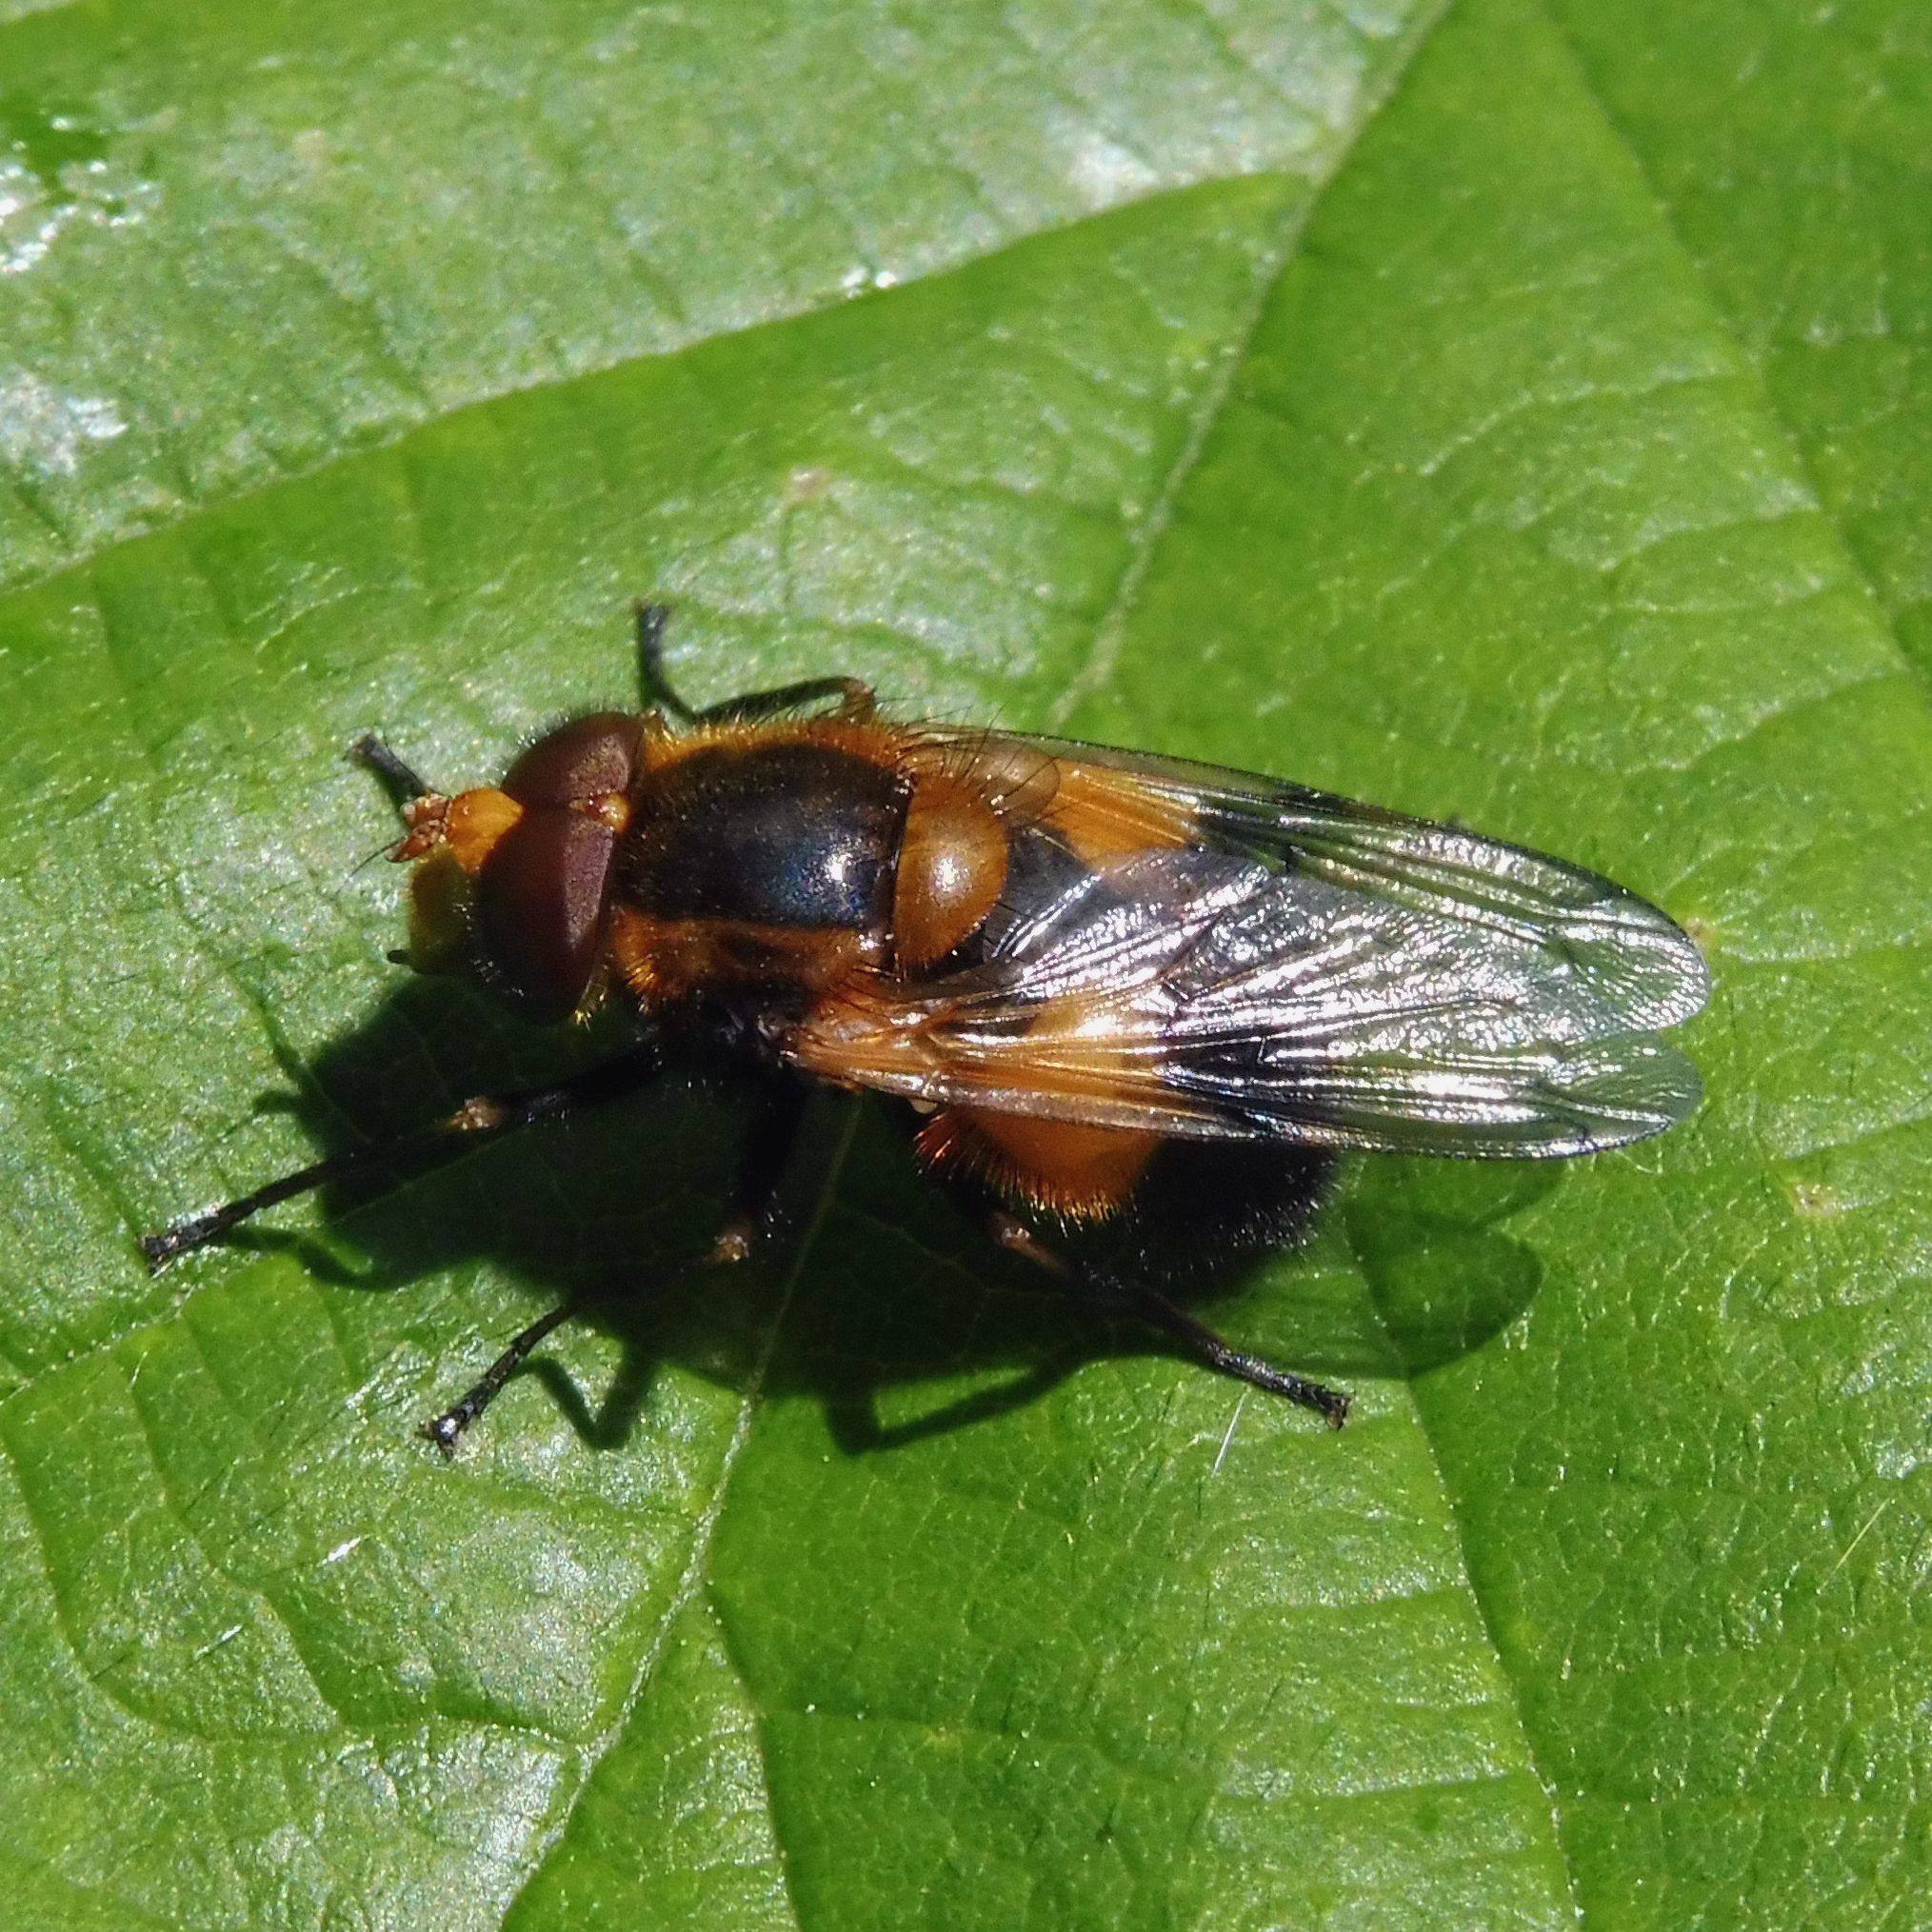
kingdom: Animalia
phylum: Arthropoda
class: Insecta
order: Diptera
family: Syrphidae
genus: Volucella
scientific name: Volucella inflata
